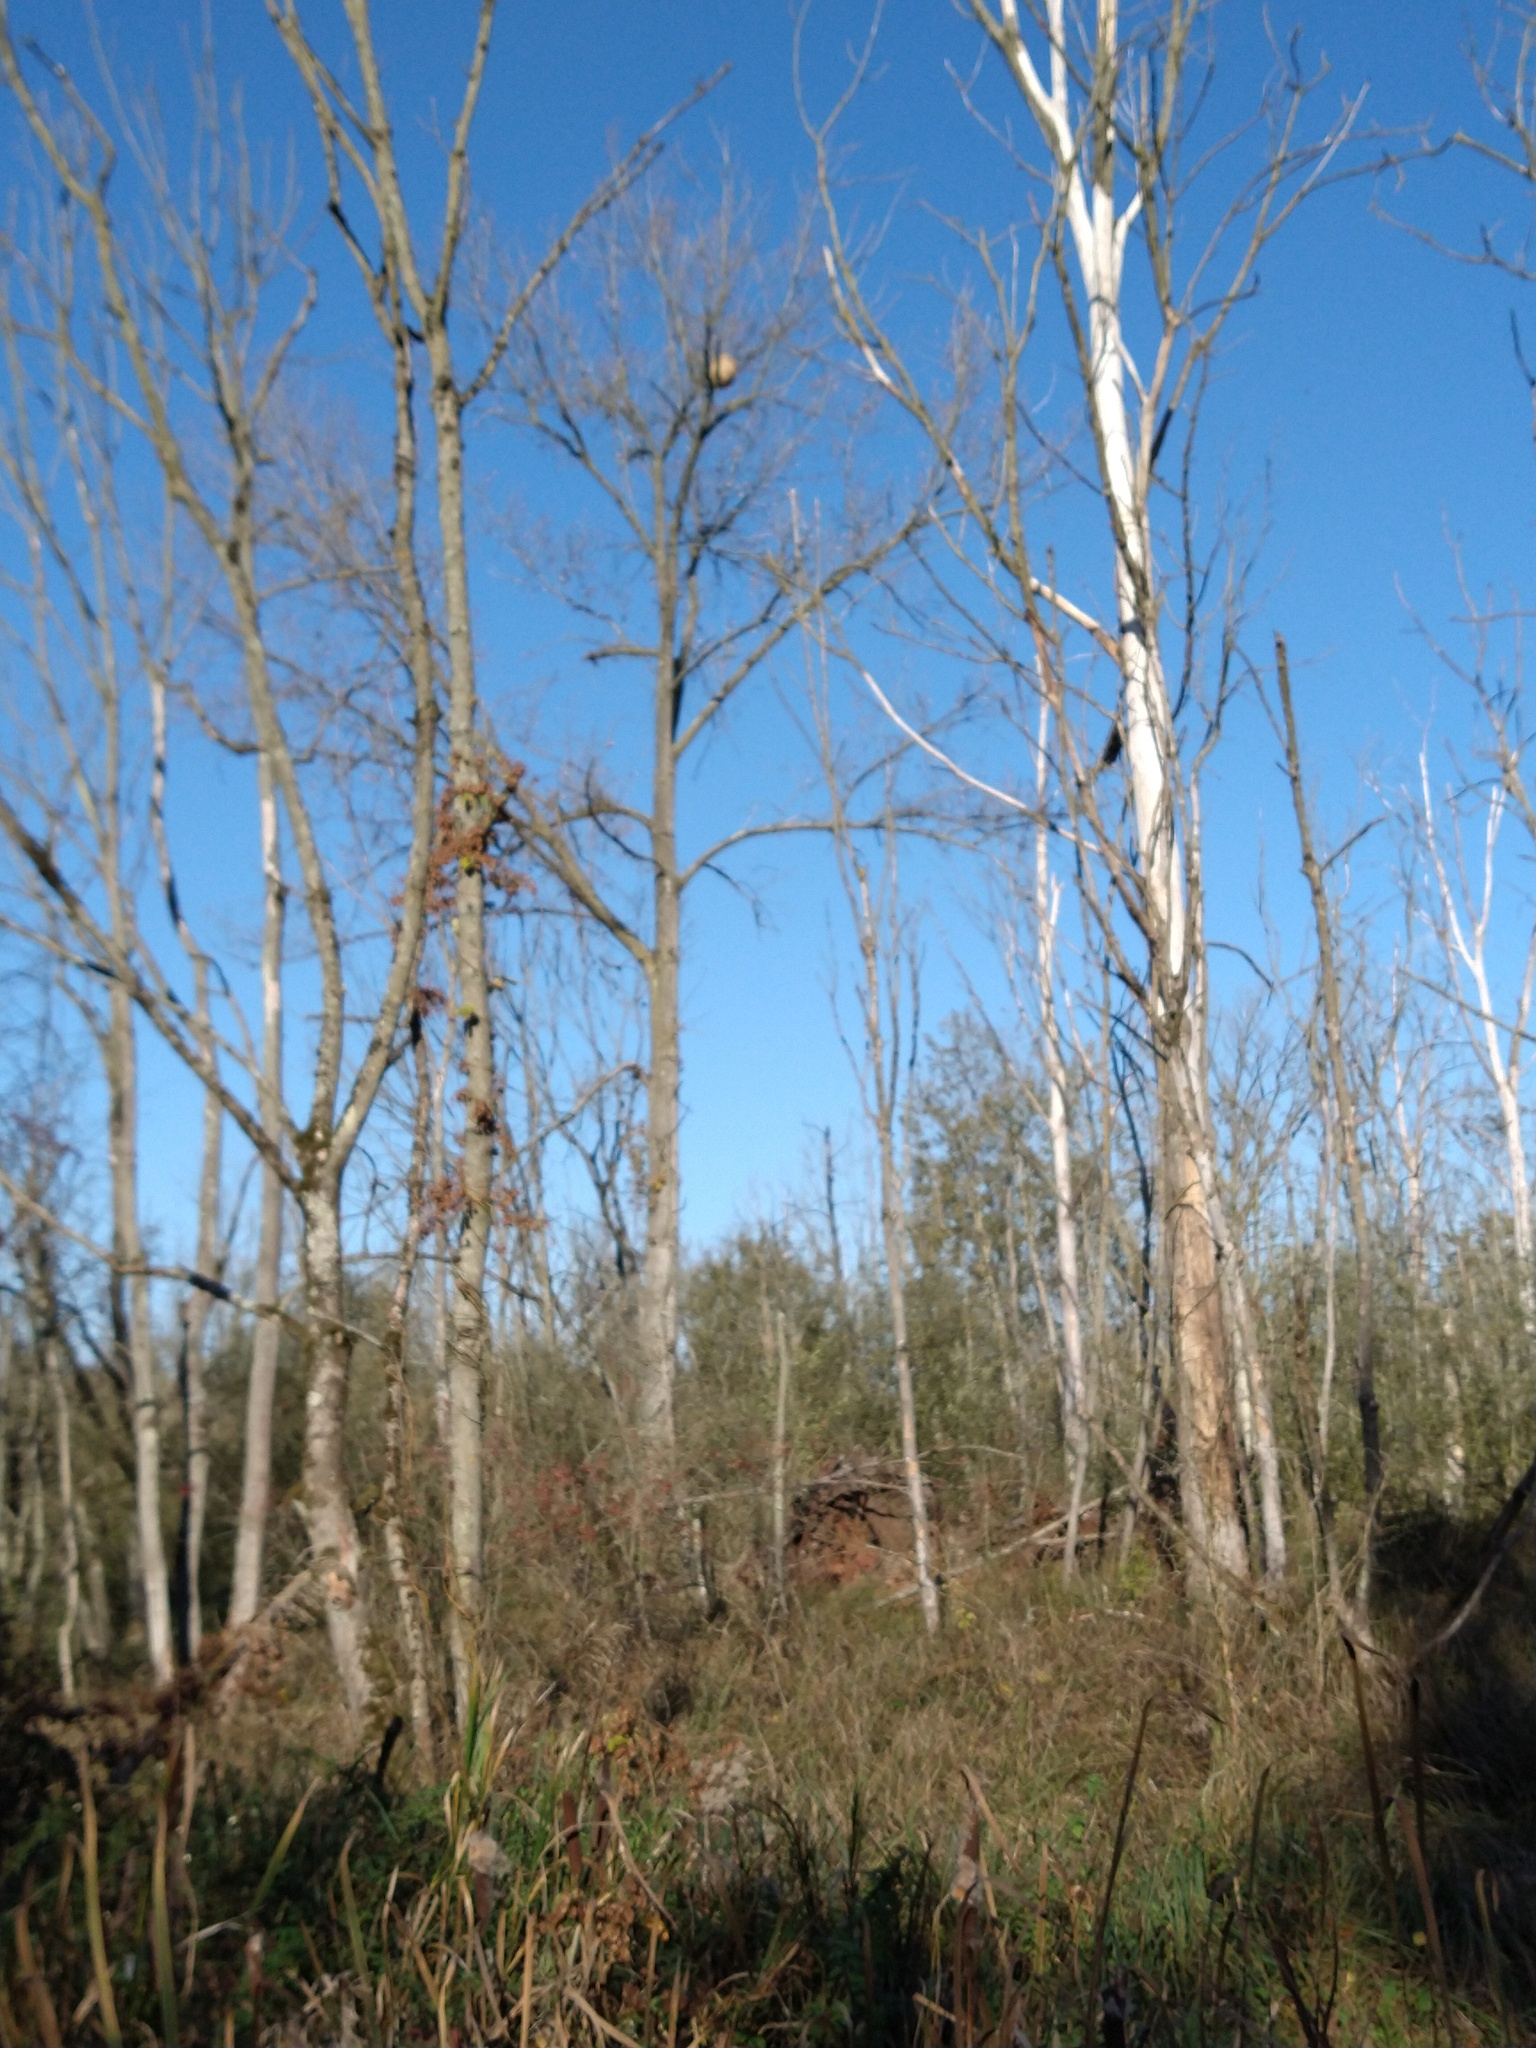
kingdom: Animalia
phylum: Arthropoda
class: Insecta
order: Hymenoptera
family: Vespidae
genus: Vespa
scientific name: Vespa velutina
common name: Asian hornet
